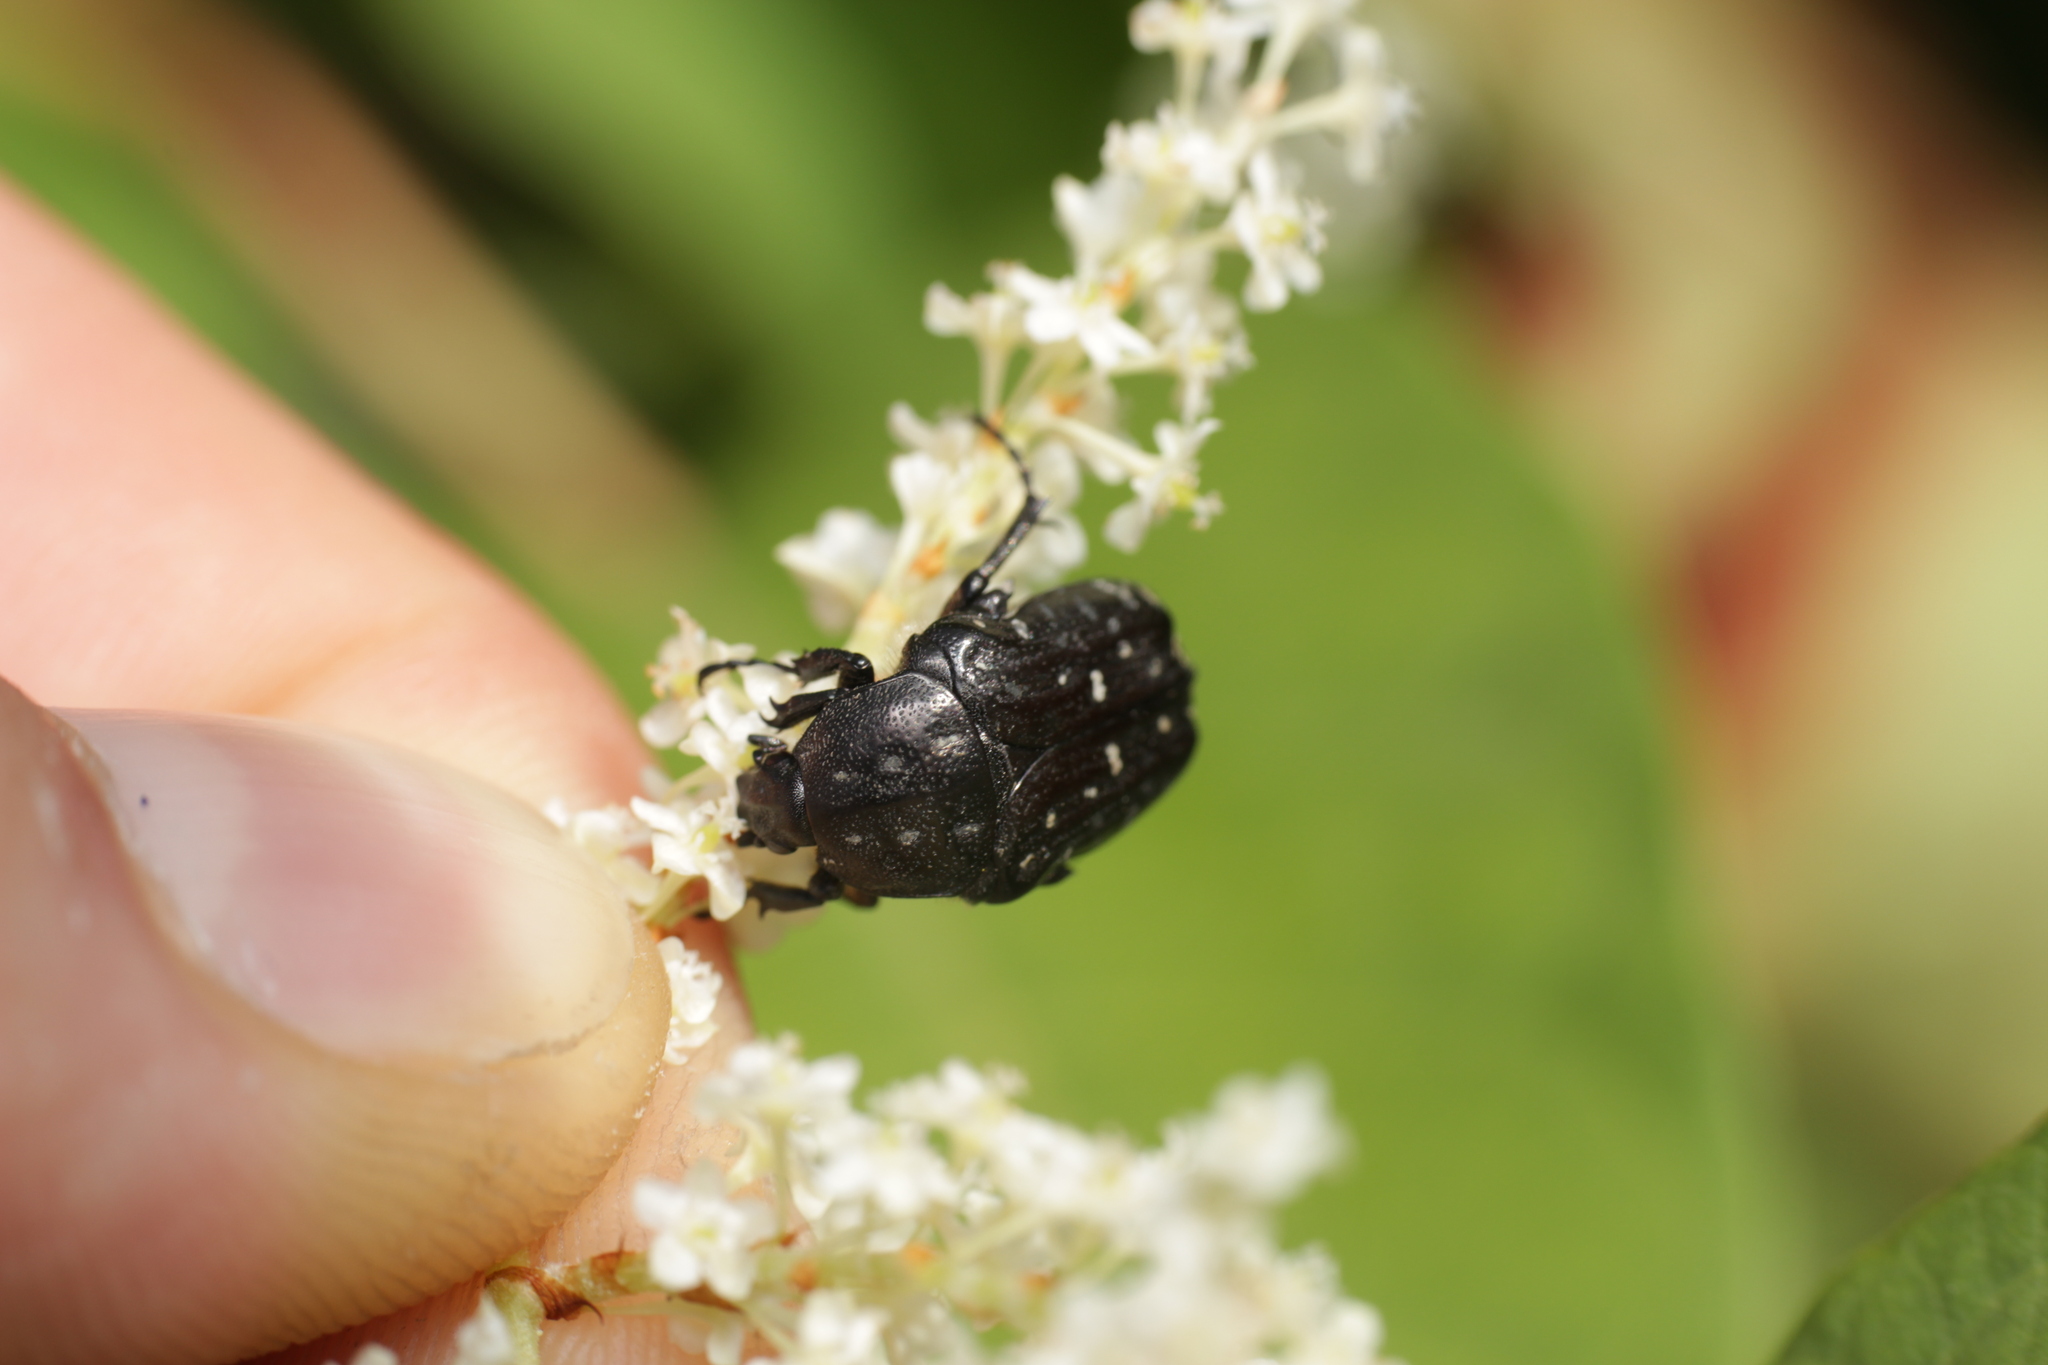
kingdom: Animalia
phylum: Arthropoda
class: Insecta
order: Coleoptera
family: Scarabaeidae
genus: Oxythyrea
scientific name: Oxythyrea funesta
